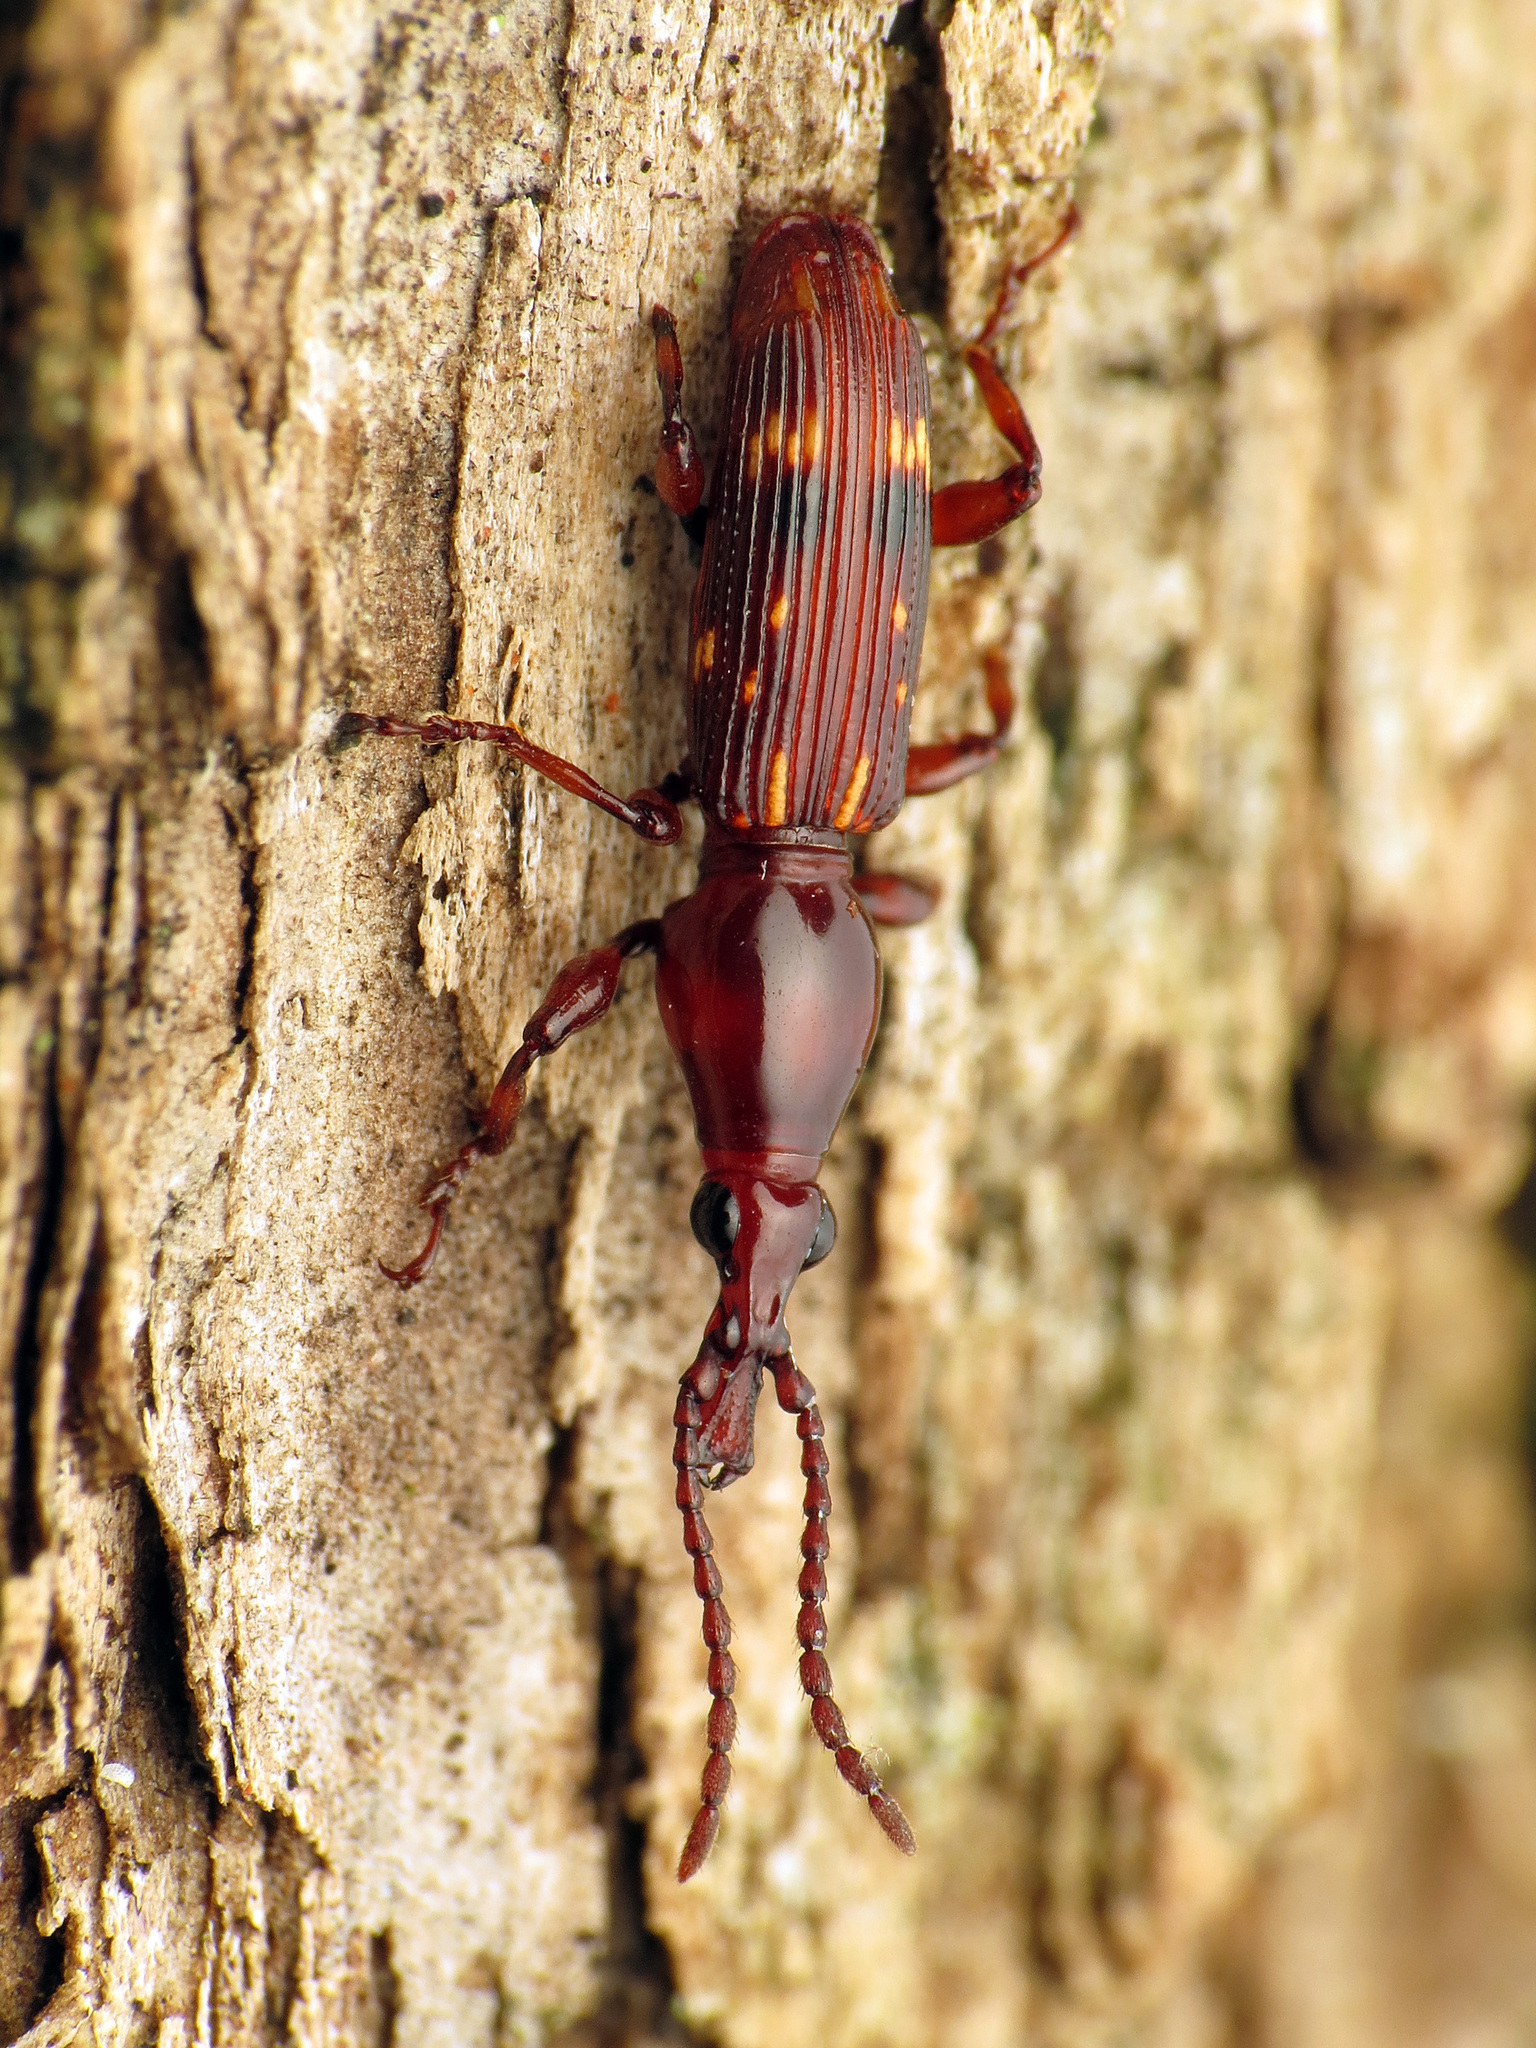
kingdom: Animalia
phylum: Arthropoda
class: Insecta
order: Coleoptera
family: Brentidae
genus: Arrenodes
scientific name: Arrenodes minutus
